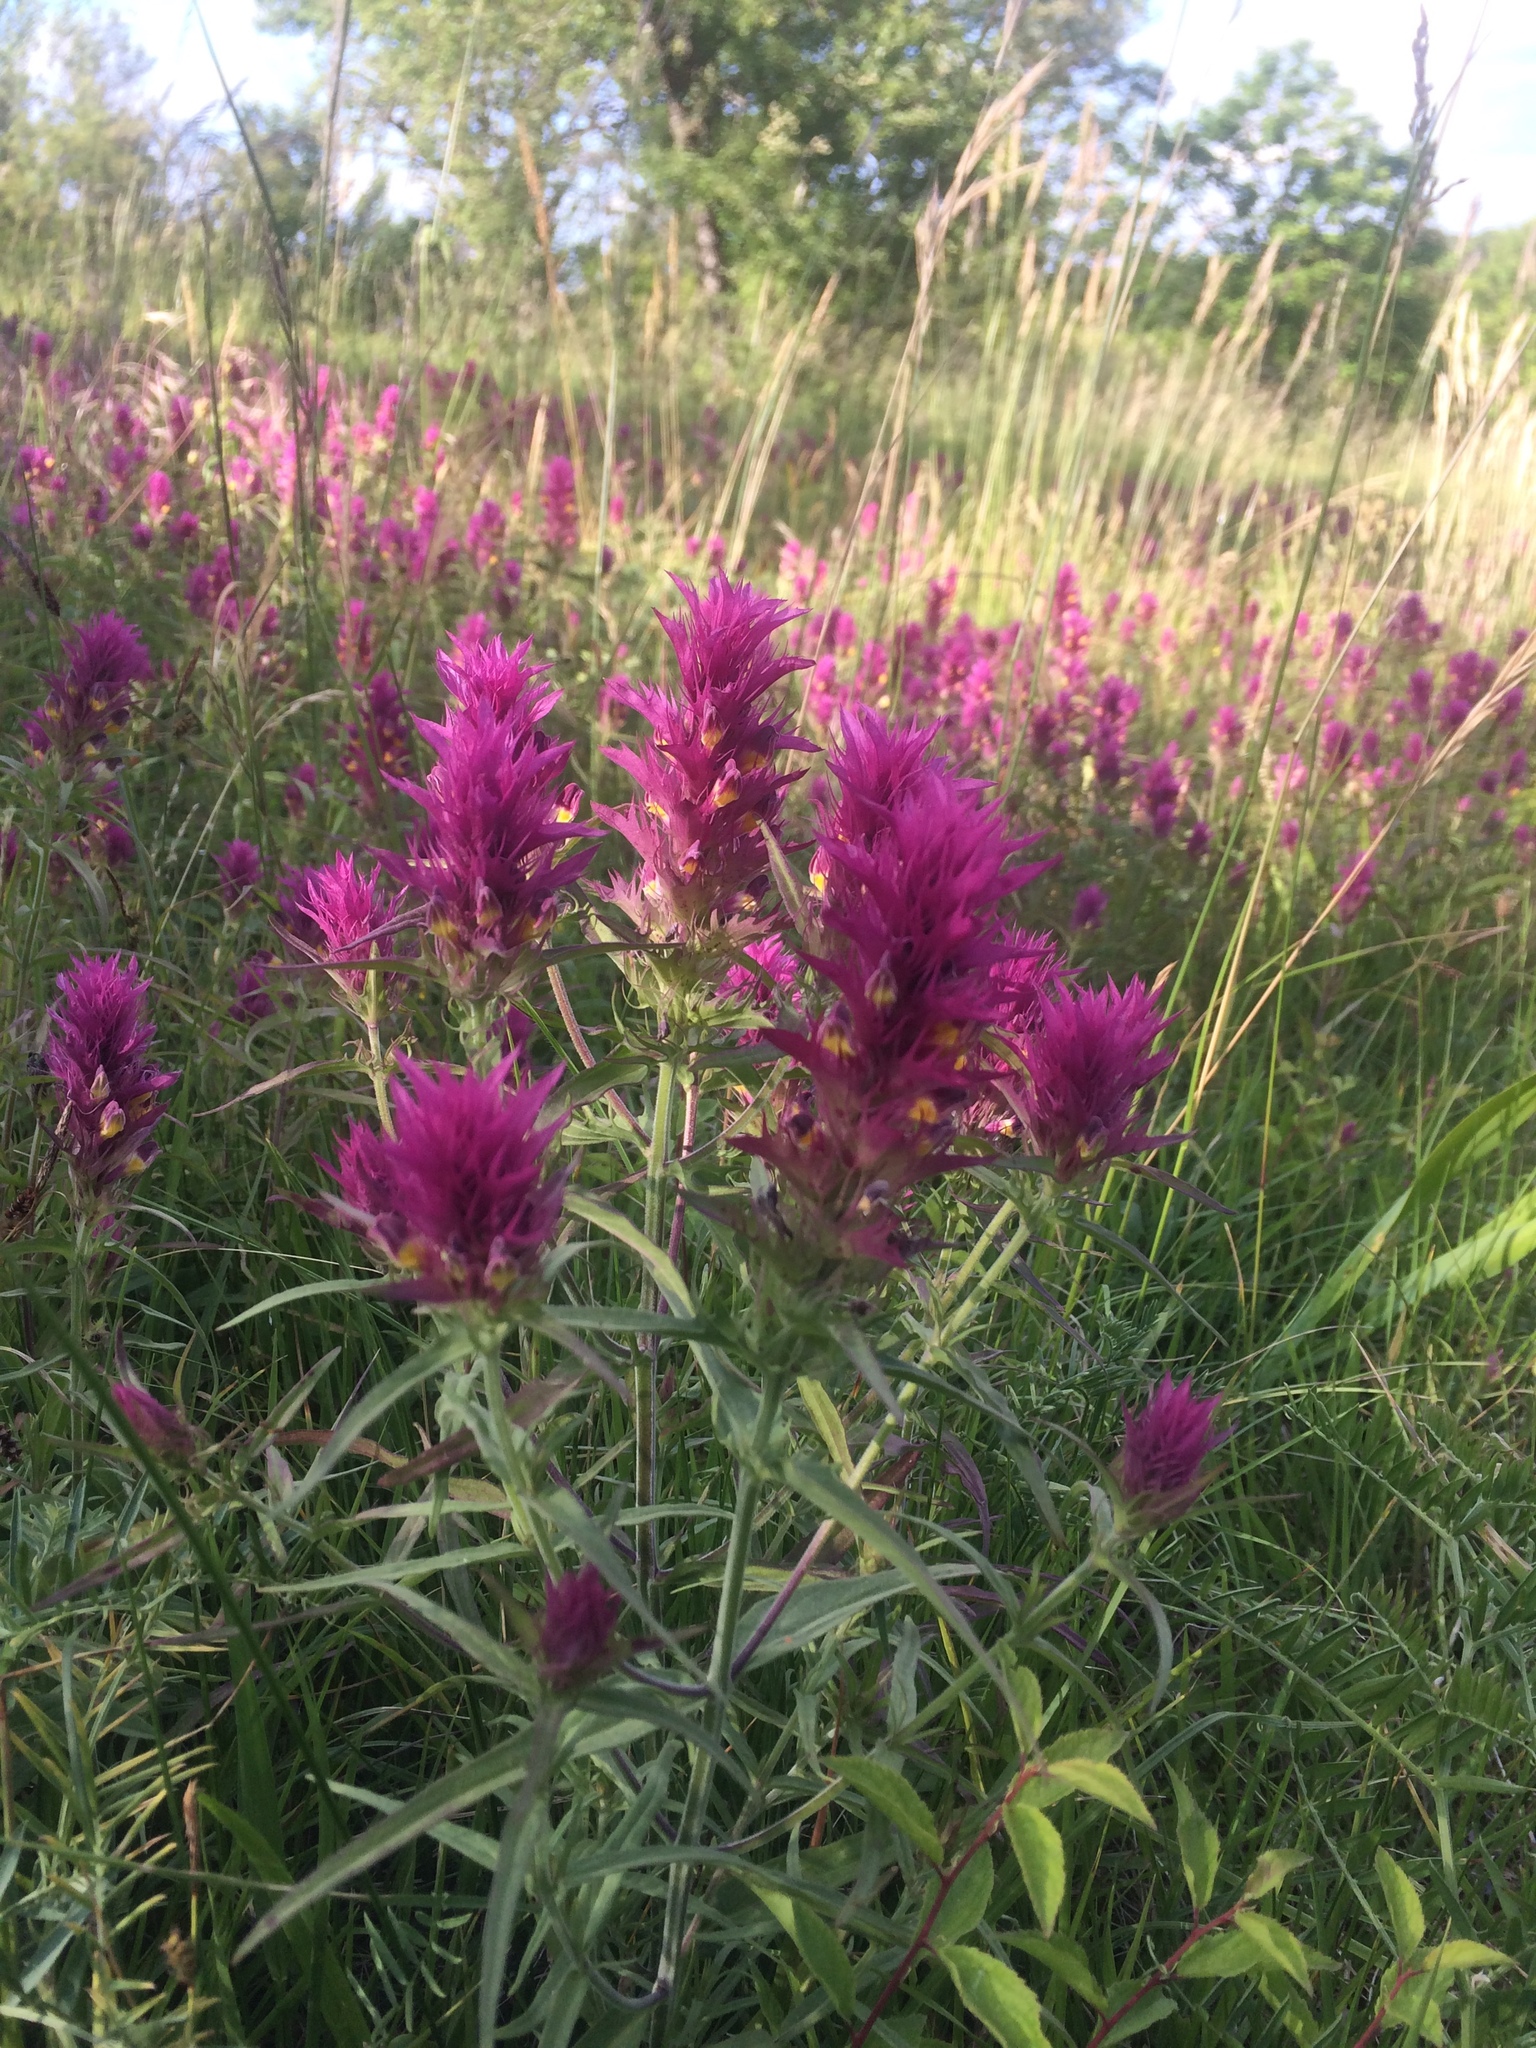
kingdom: Plantae
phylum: Tracheophyta
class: Magnoliopsida
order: Lamiales
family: Orobanchaceae
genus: Melampyrum
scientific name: Melampyrum arvense
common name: Field cow-wheat
